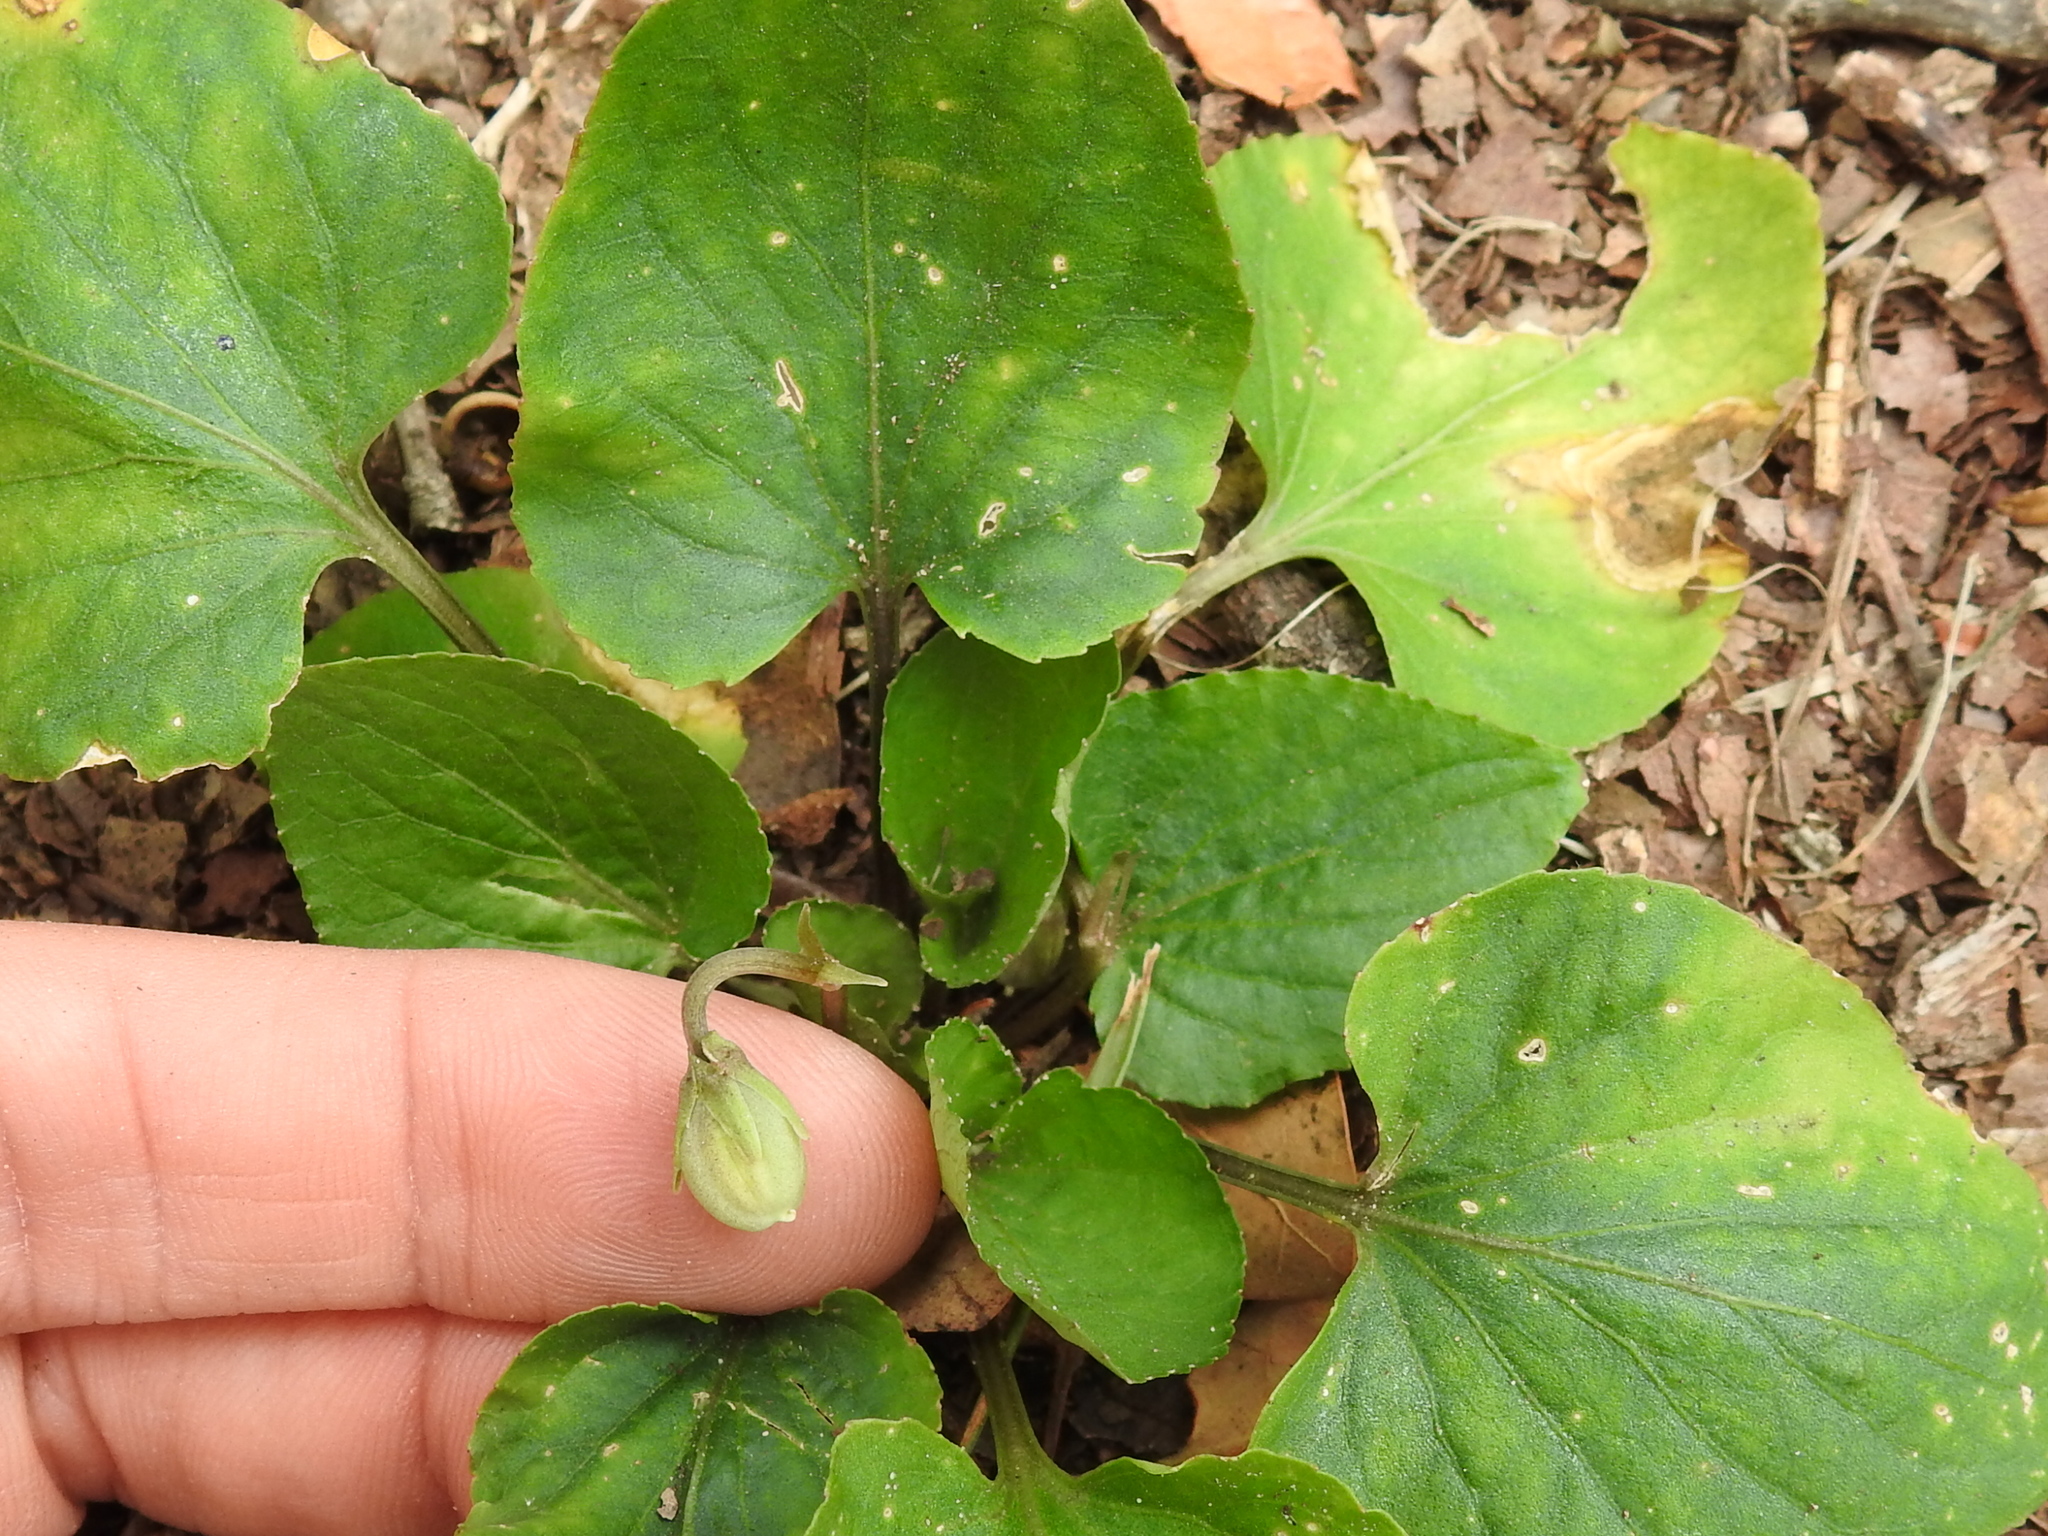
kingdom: Plantae
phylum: Tracheophyta
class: Magnoliopsida
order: Malpighiales
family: Violaceae
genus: Viola
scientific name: Viola villosa
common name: Carolina violet
